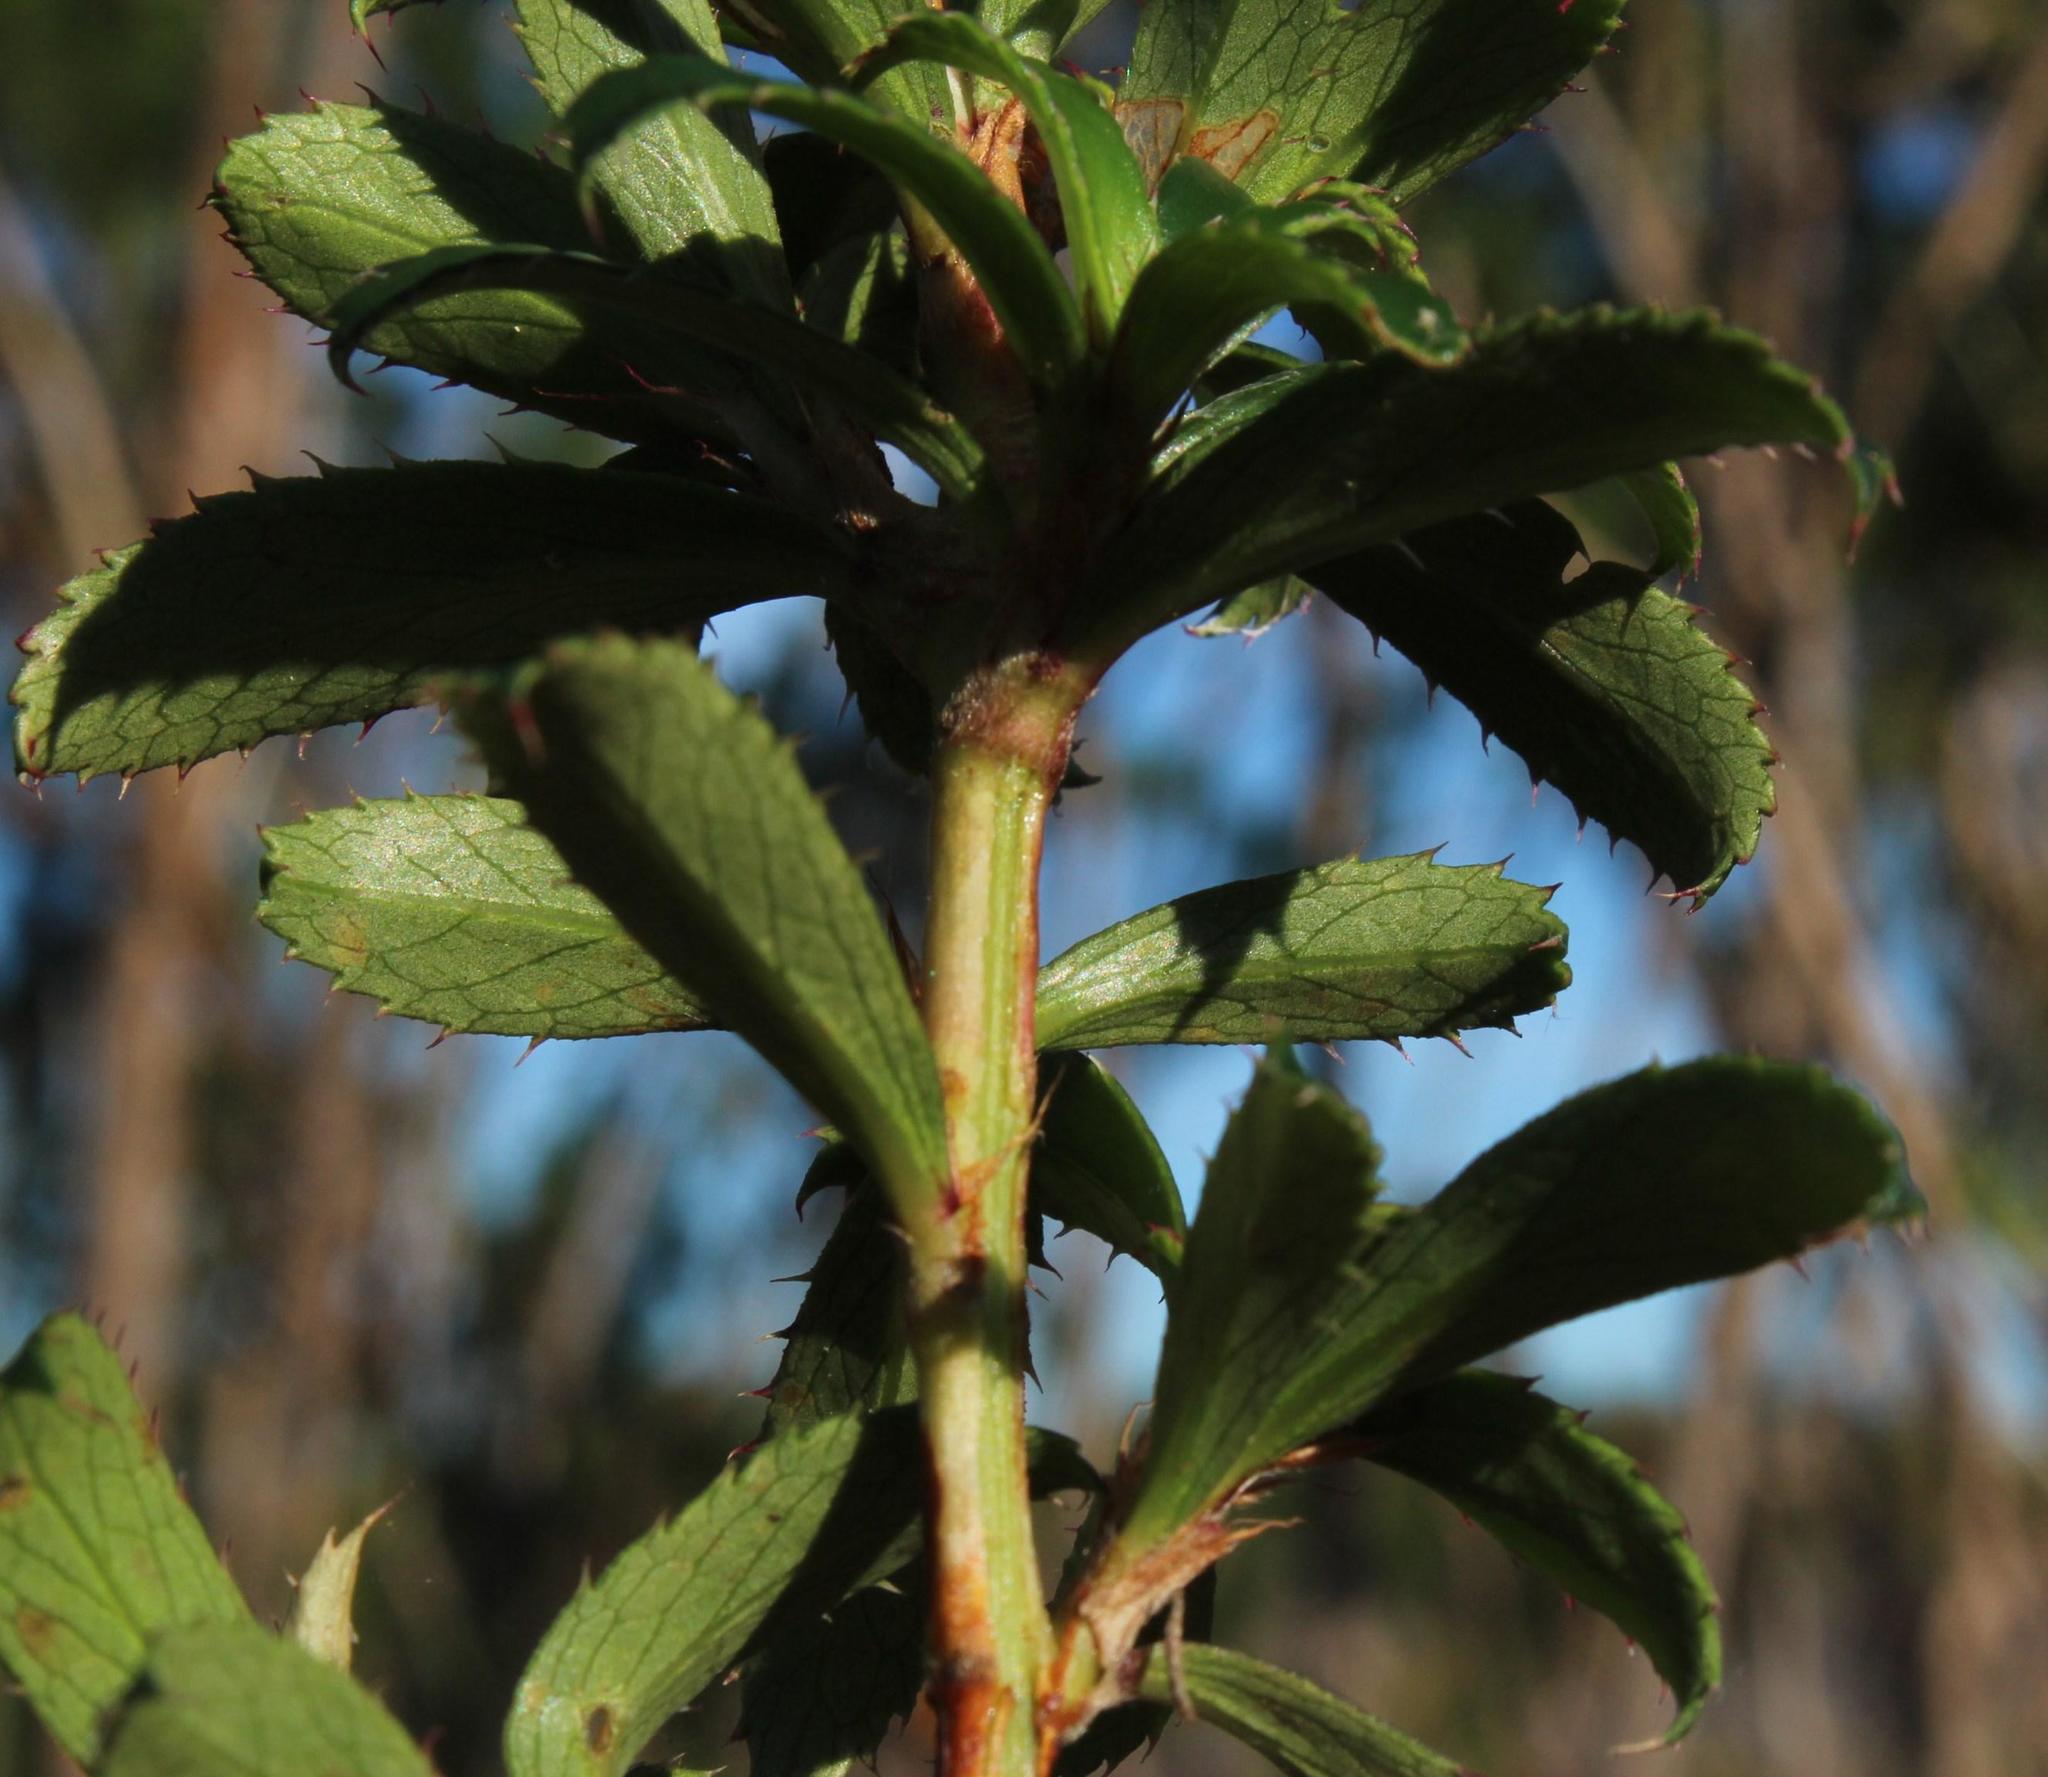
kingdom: Plantae
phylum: Tracheophyta
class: Magnoliopsida
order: Rosales
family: Rosaceae
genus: Cliffortia
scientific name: Cliffortia ferruginea
